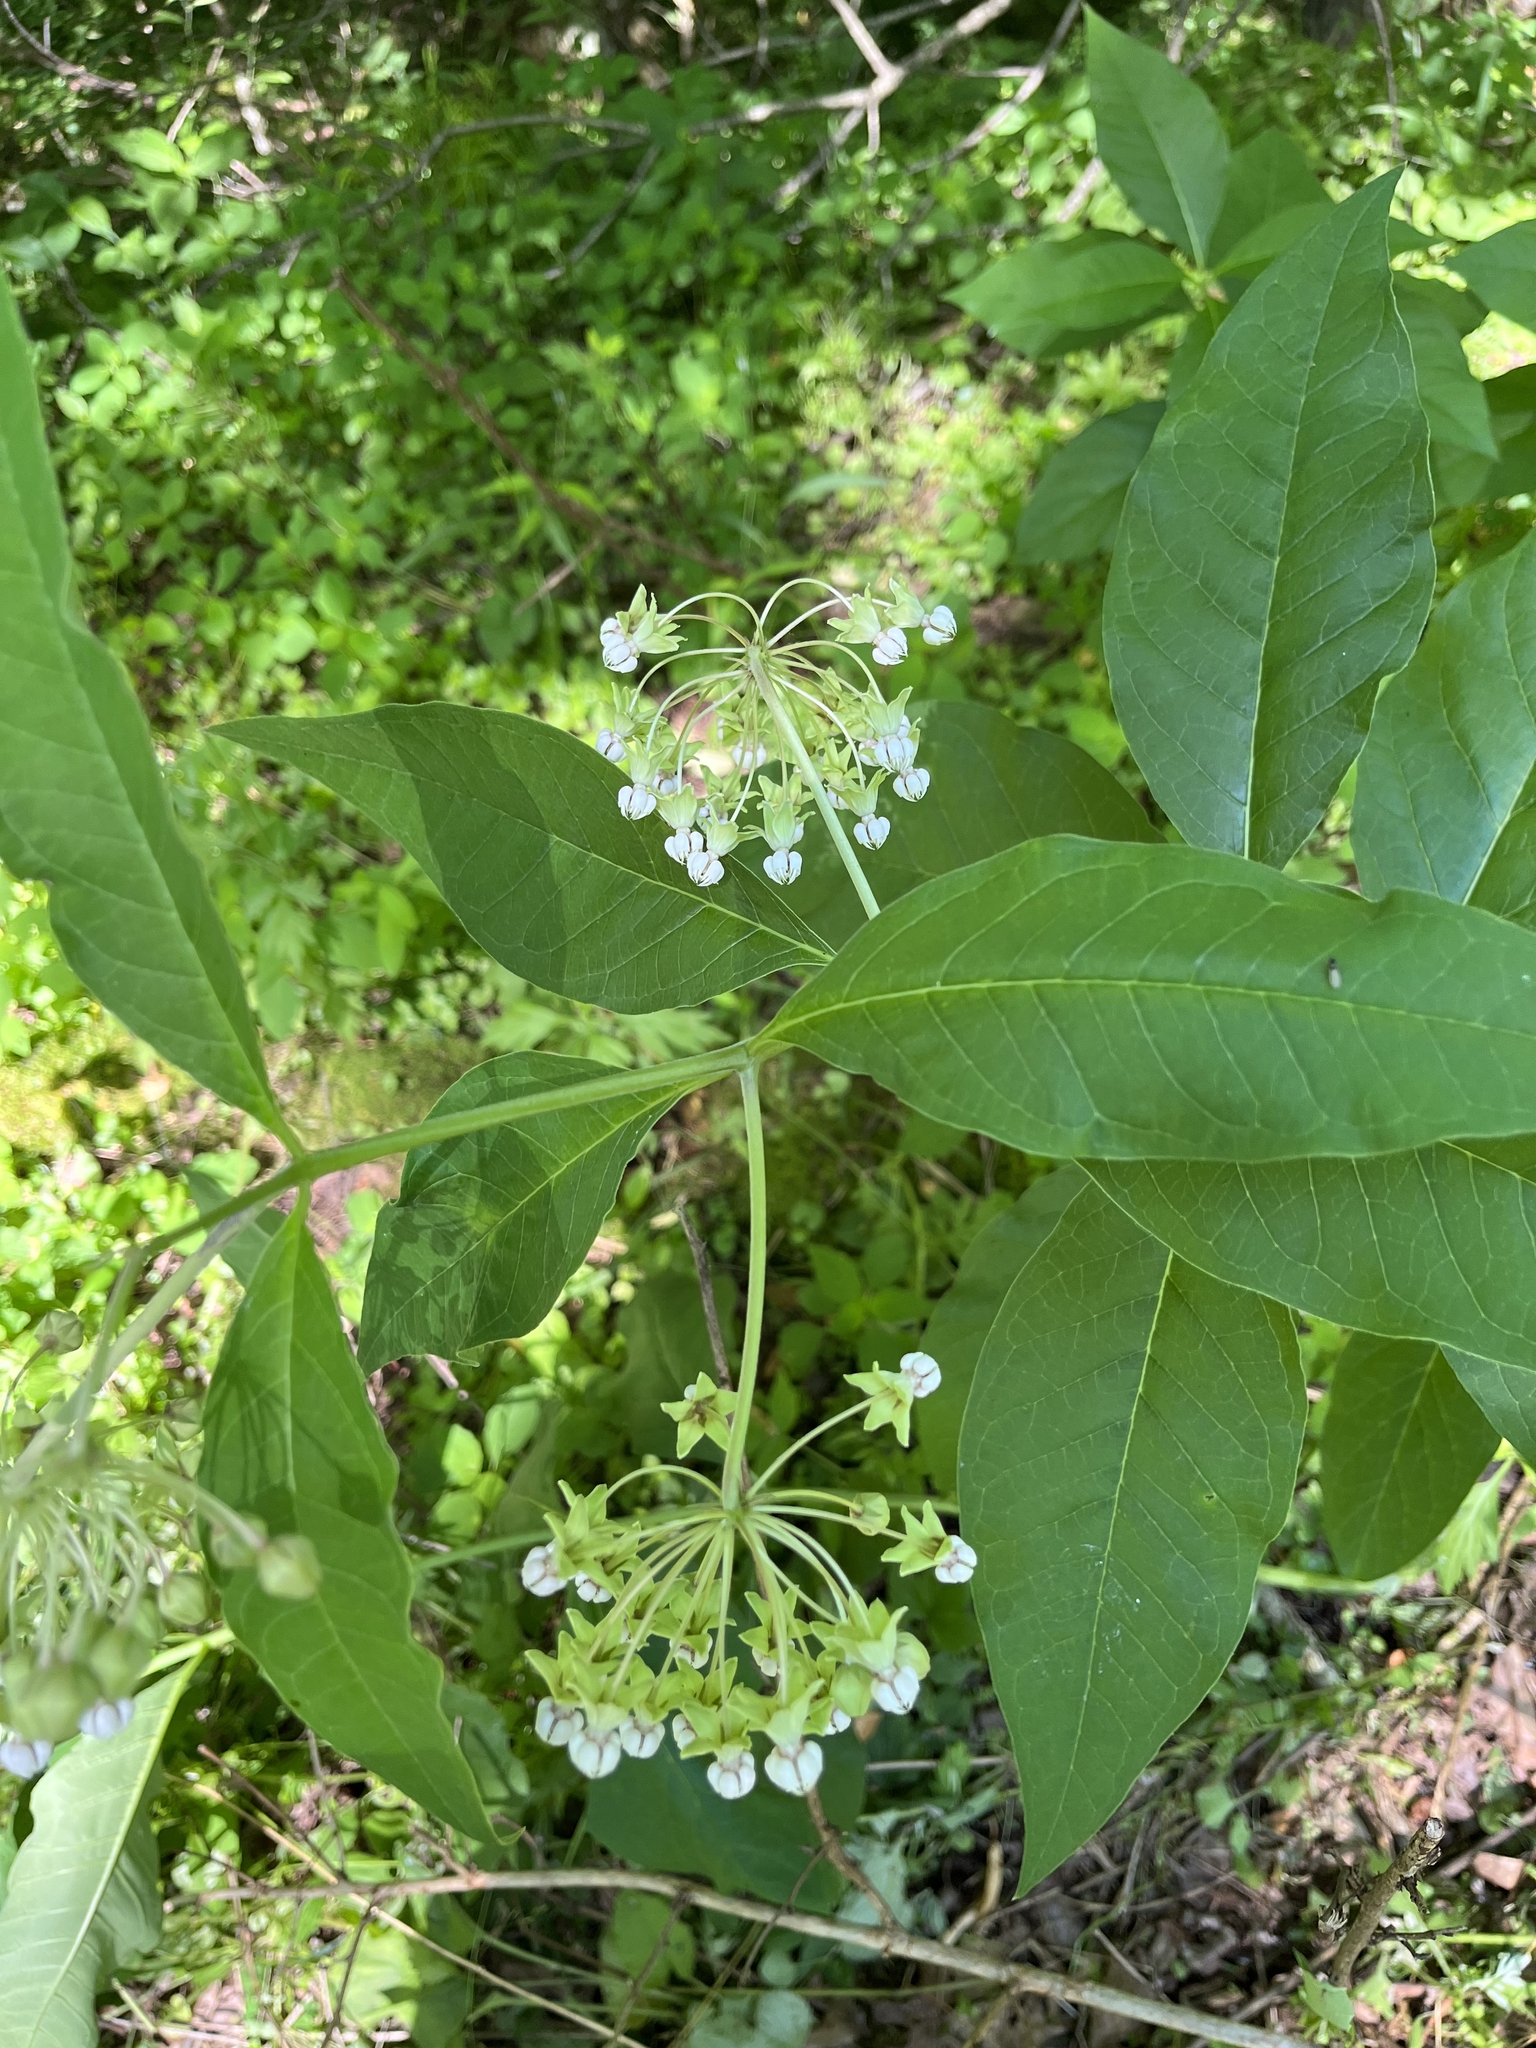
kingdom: Plantae
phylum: Tracheophyta
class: Magnoliopsida
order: Gentianales
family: Apocynaceae
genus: Asclepias
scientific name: Asclepias exaltata
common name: Poke milkweed
